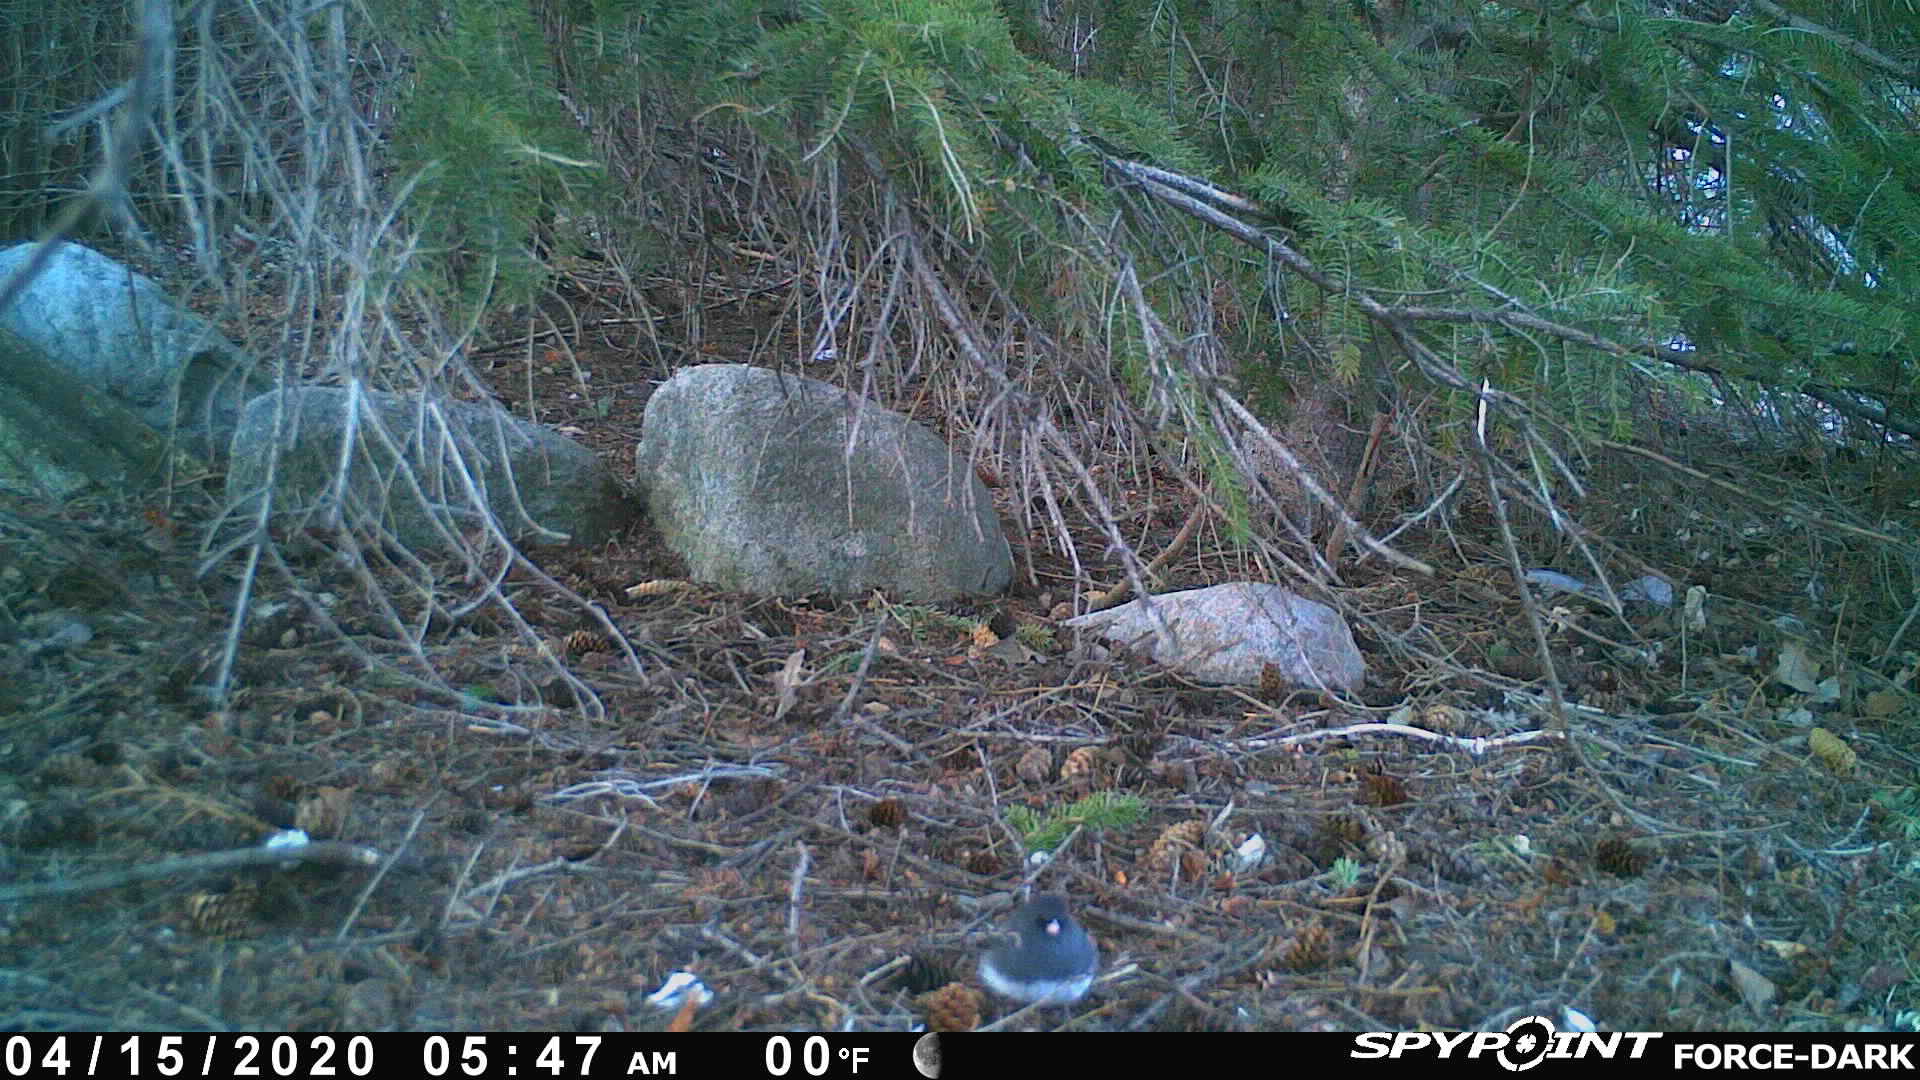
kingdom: Animalia
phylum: Chordata
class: Aves
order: Passeriformes
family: Passerellidae
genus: Junco
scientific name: Junco hyemalis
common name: Dark-eyed junco
